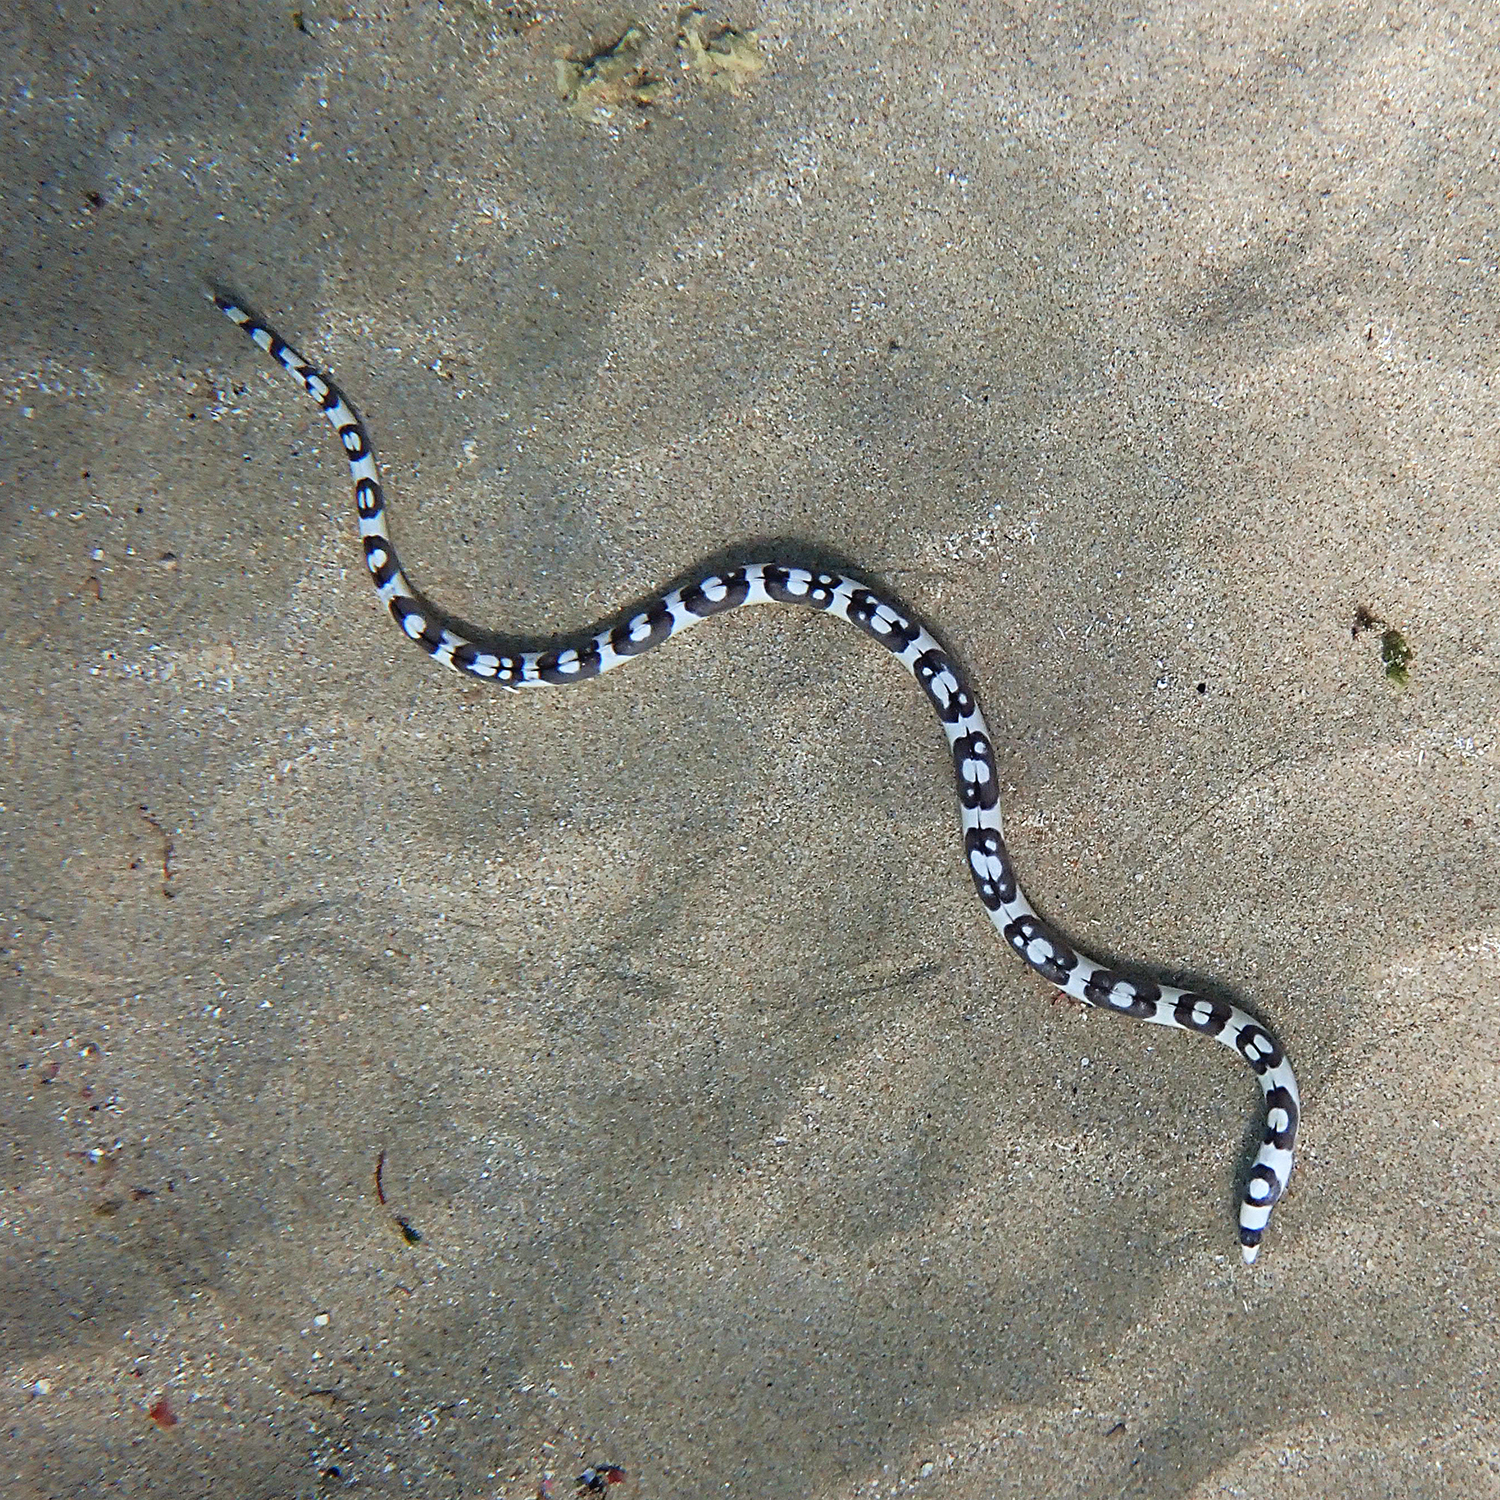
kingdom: Animalia
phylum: Chordata
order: Anguilliformes
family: Ophichthidae
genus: Leiuranus
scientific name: Leiuranus versicolor
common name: Convict snake eel
